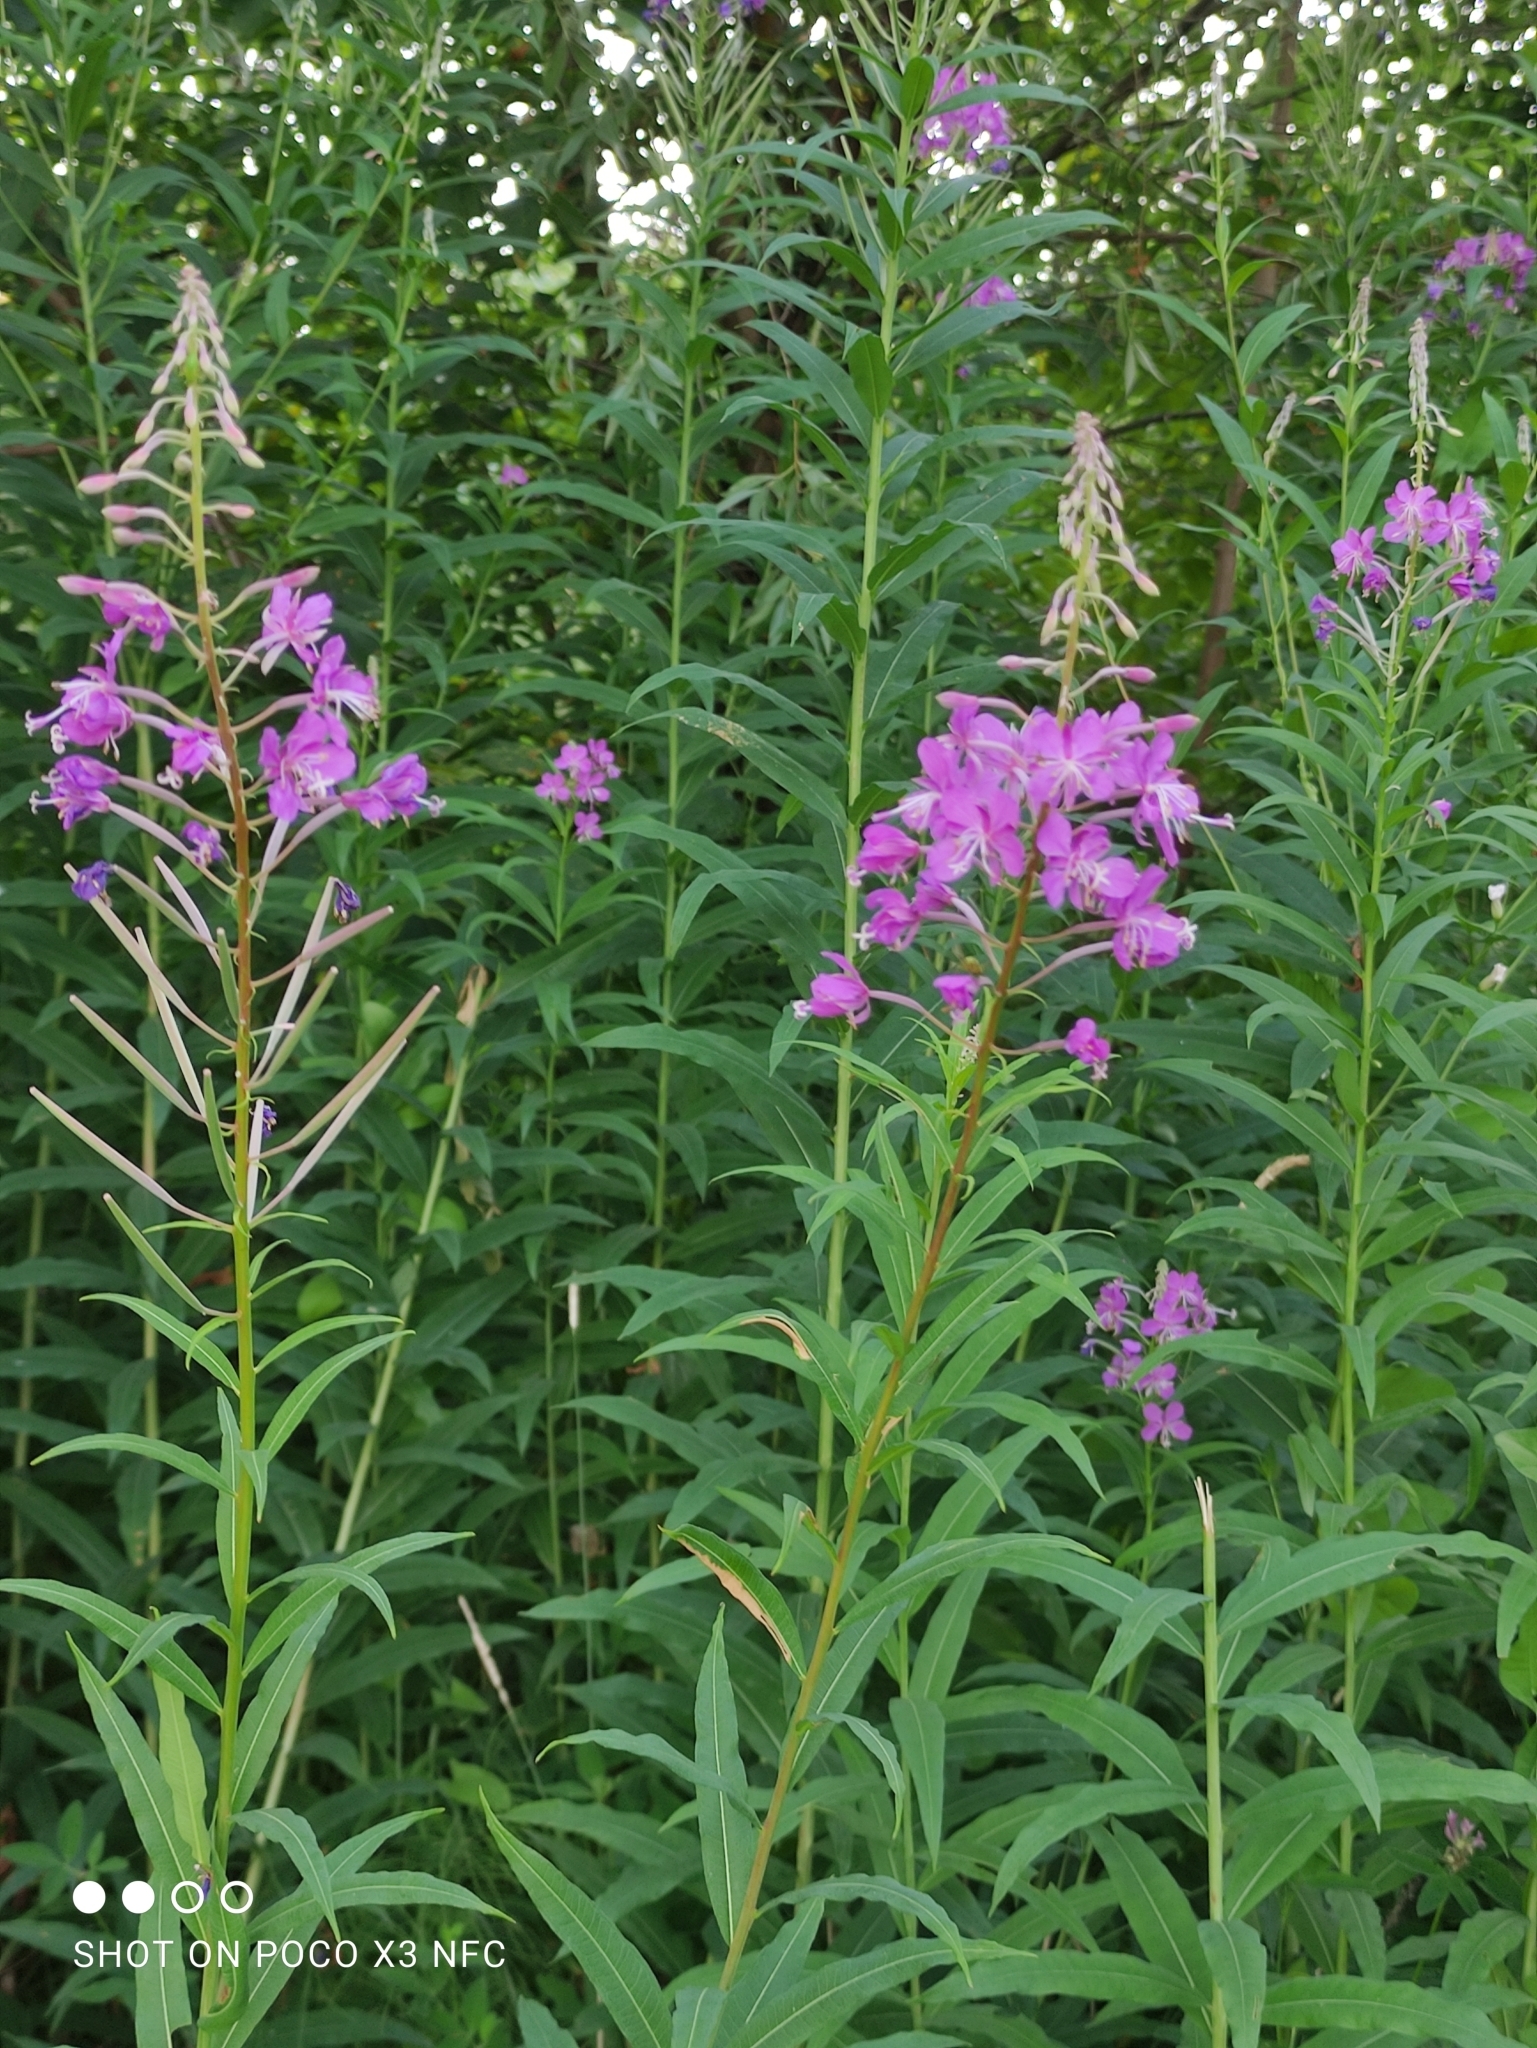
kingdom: Plantae
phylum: Tracheophyta
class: Magnoliopsida
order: Myrtales
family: Onagraceae
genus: Chamaenerion
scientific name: Chamaenerion angustifolium
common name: Fireweed
